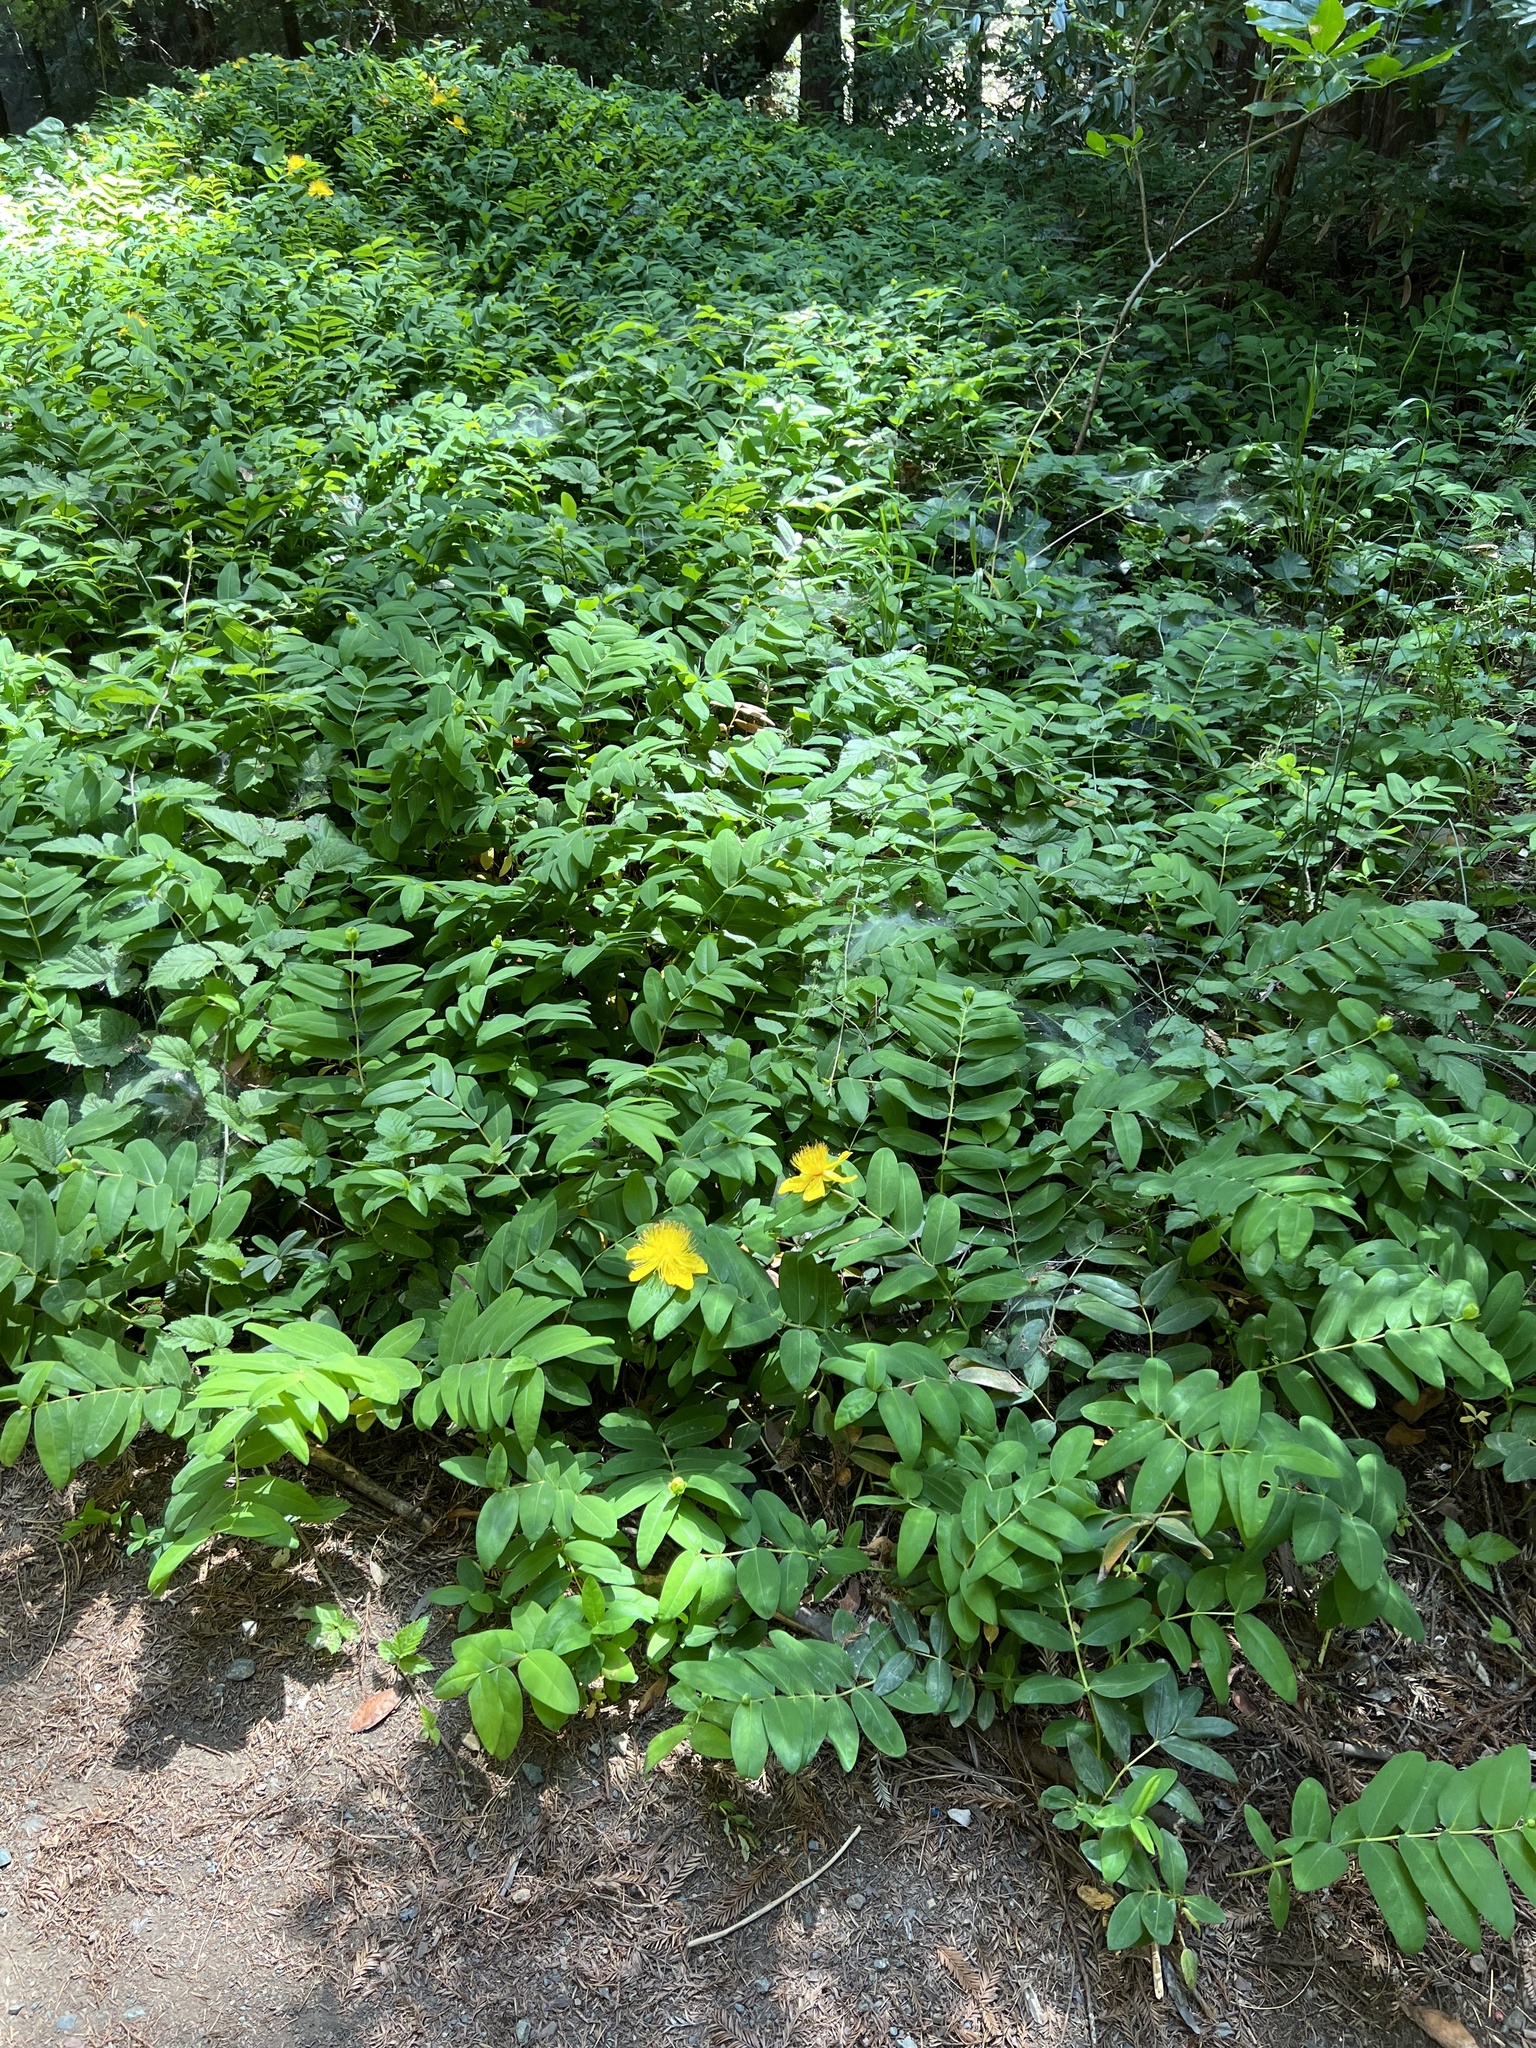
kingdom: Plantae
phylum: Tracheophyta
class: Magnoliopsida
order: Malpighiales
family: Hypericaceae
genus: Hypericum
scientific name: Hypericum calycinum
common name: Rose-of-sharon
